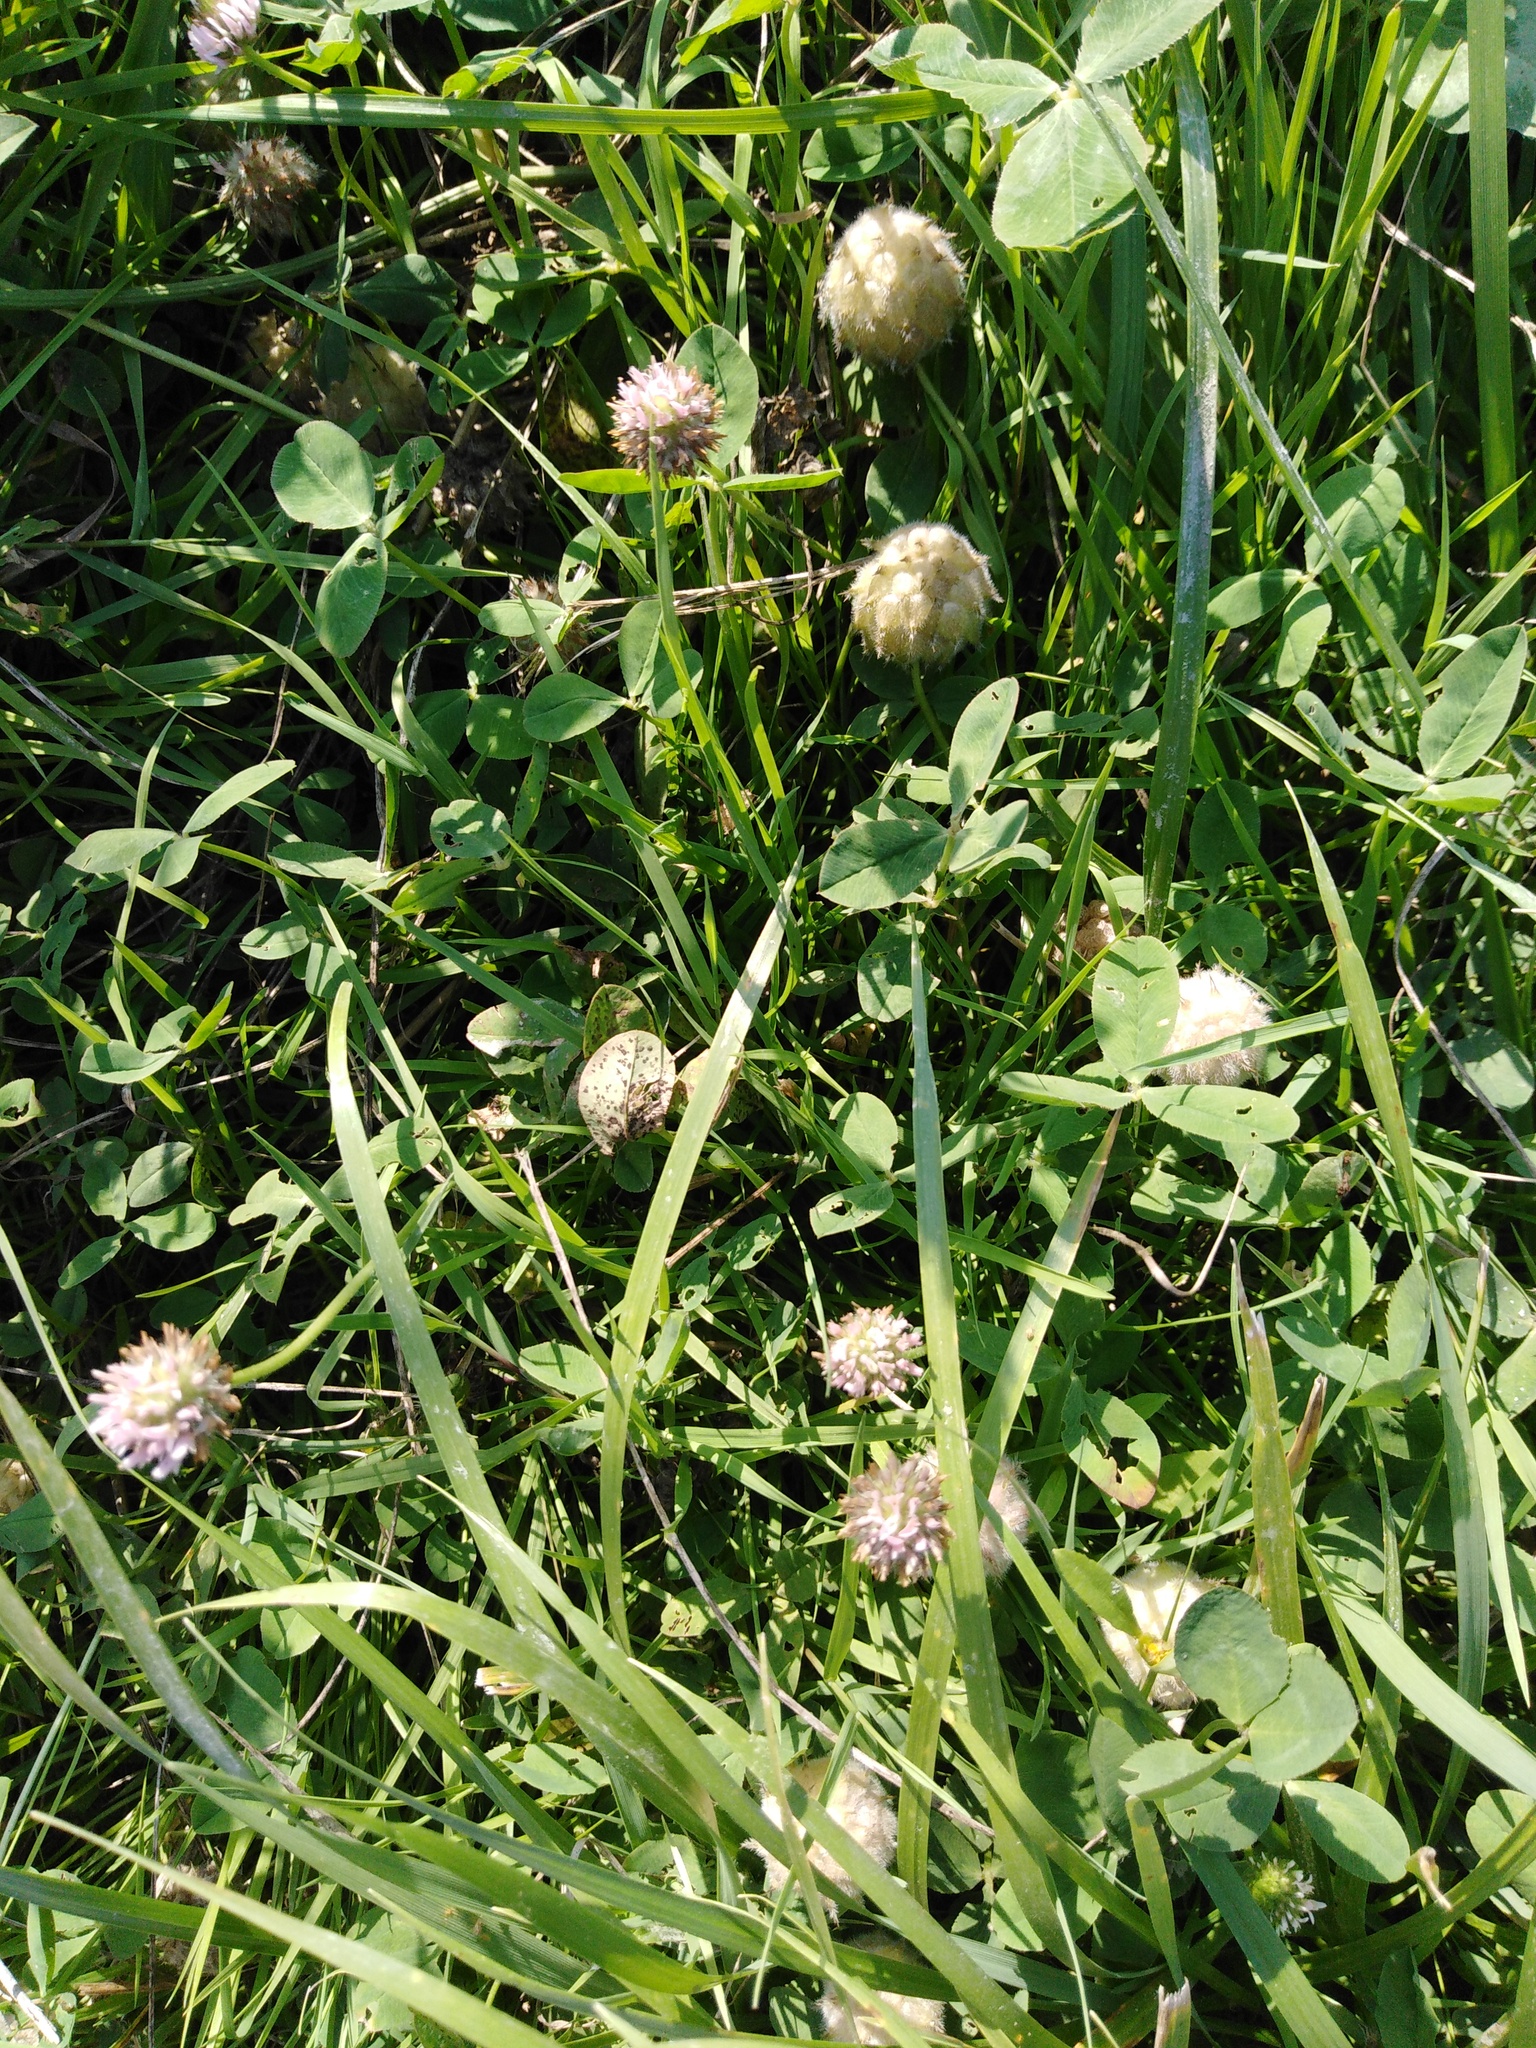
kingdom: Plantae
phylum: Tracheophyta
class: Magnoliopsida
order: Fabales
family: Fabaceae
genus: Trifolium
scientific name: Trifolium fragiferum
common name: Strawberry clover
